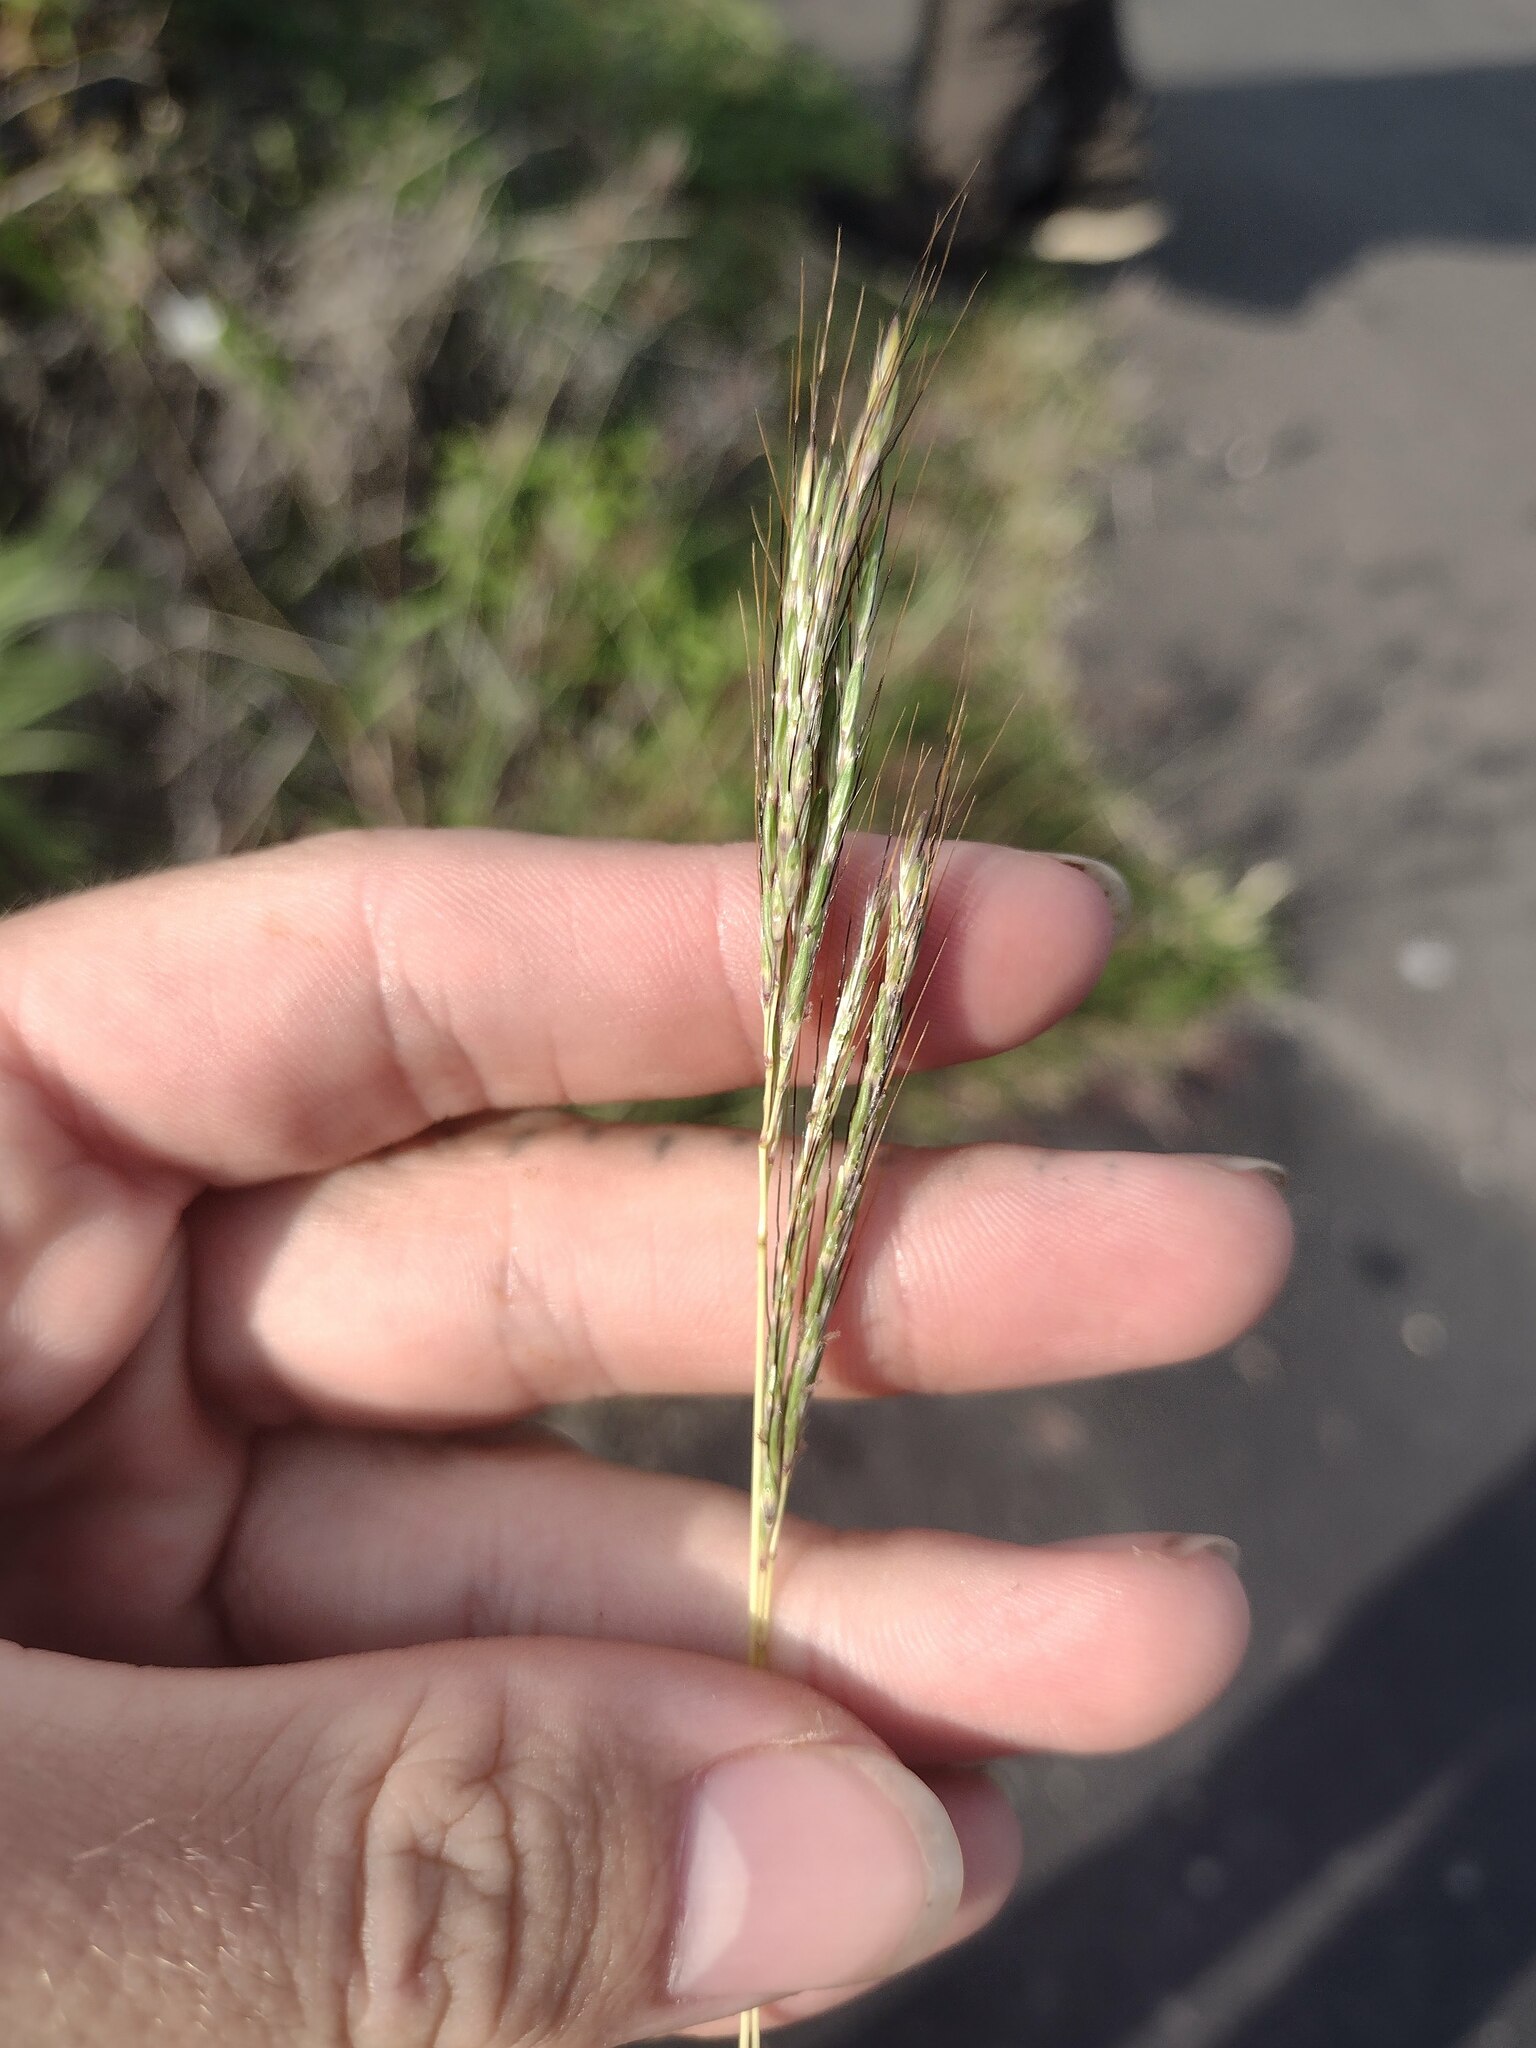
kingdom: Plantae
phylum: Tracheophyta
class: Liliopsida
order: Poales
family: Poaceae
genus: Bothriochloa
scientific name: Bothriochloa pertusa
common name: Pitted beardgrass
